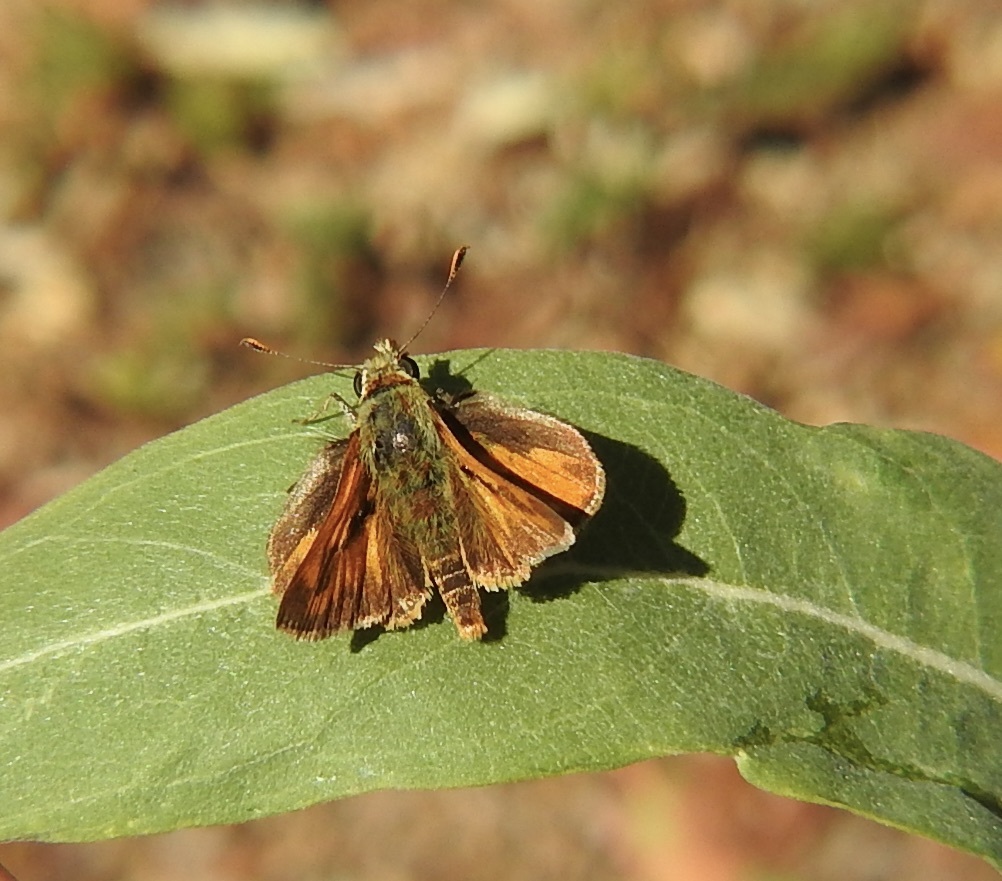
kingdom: Animalia
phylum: Arthropoda
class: Insecta
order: Lepidoptera
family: Hesperiidae
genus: Ochlodes
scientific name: Ochlodes sylvanoides
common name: Woodland skipper
